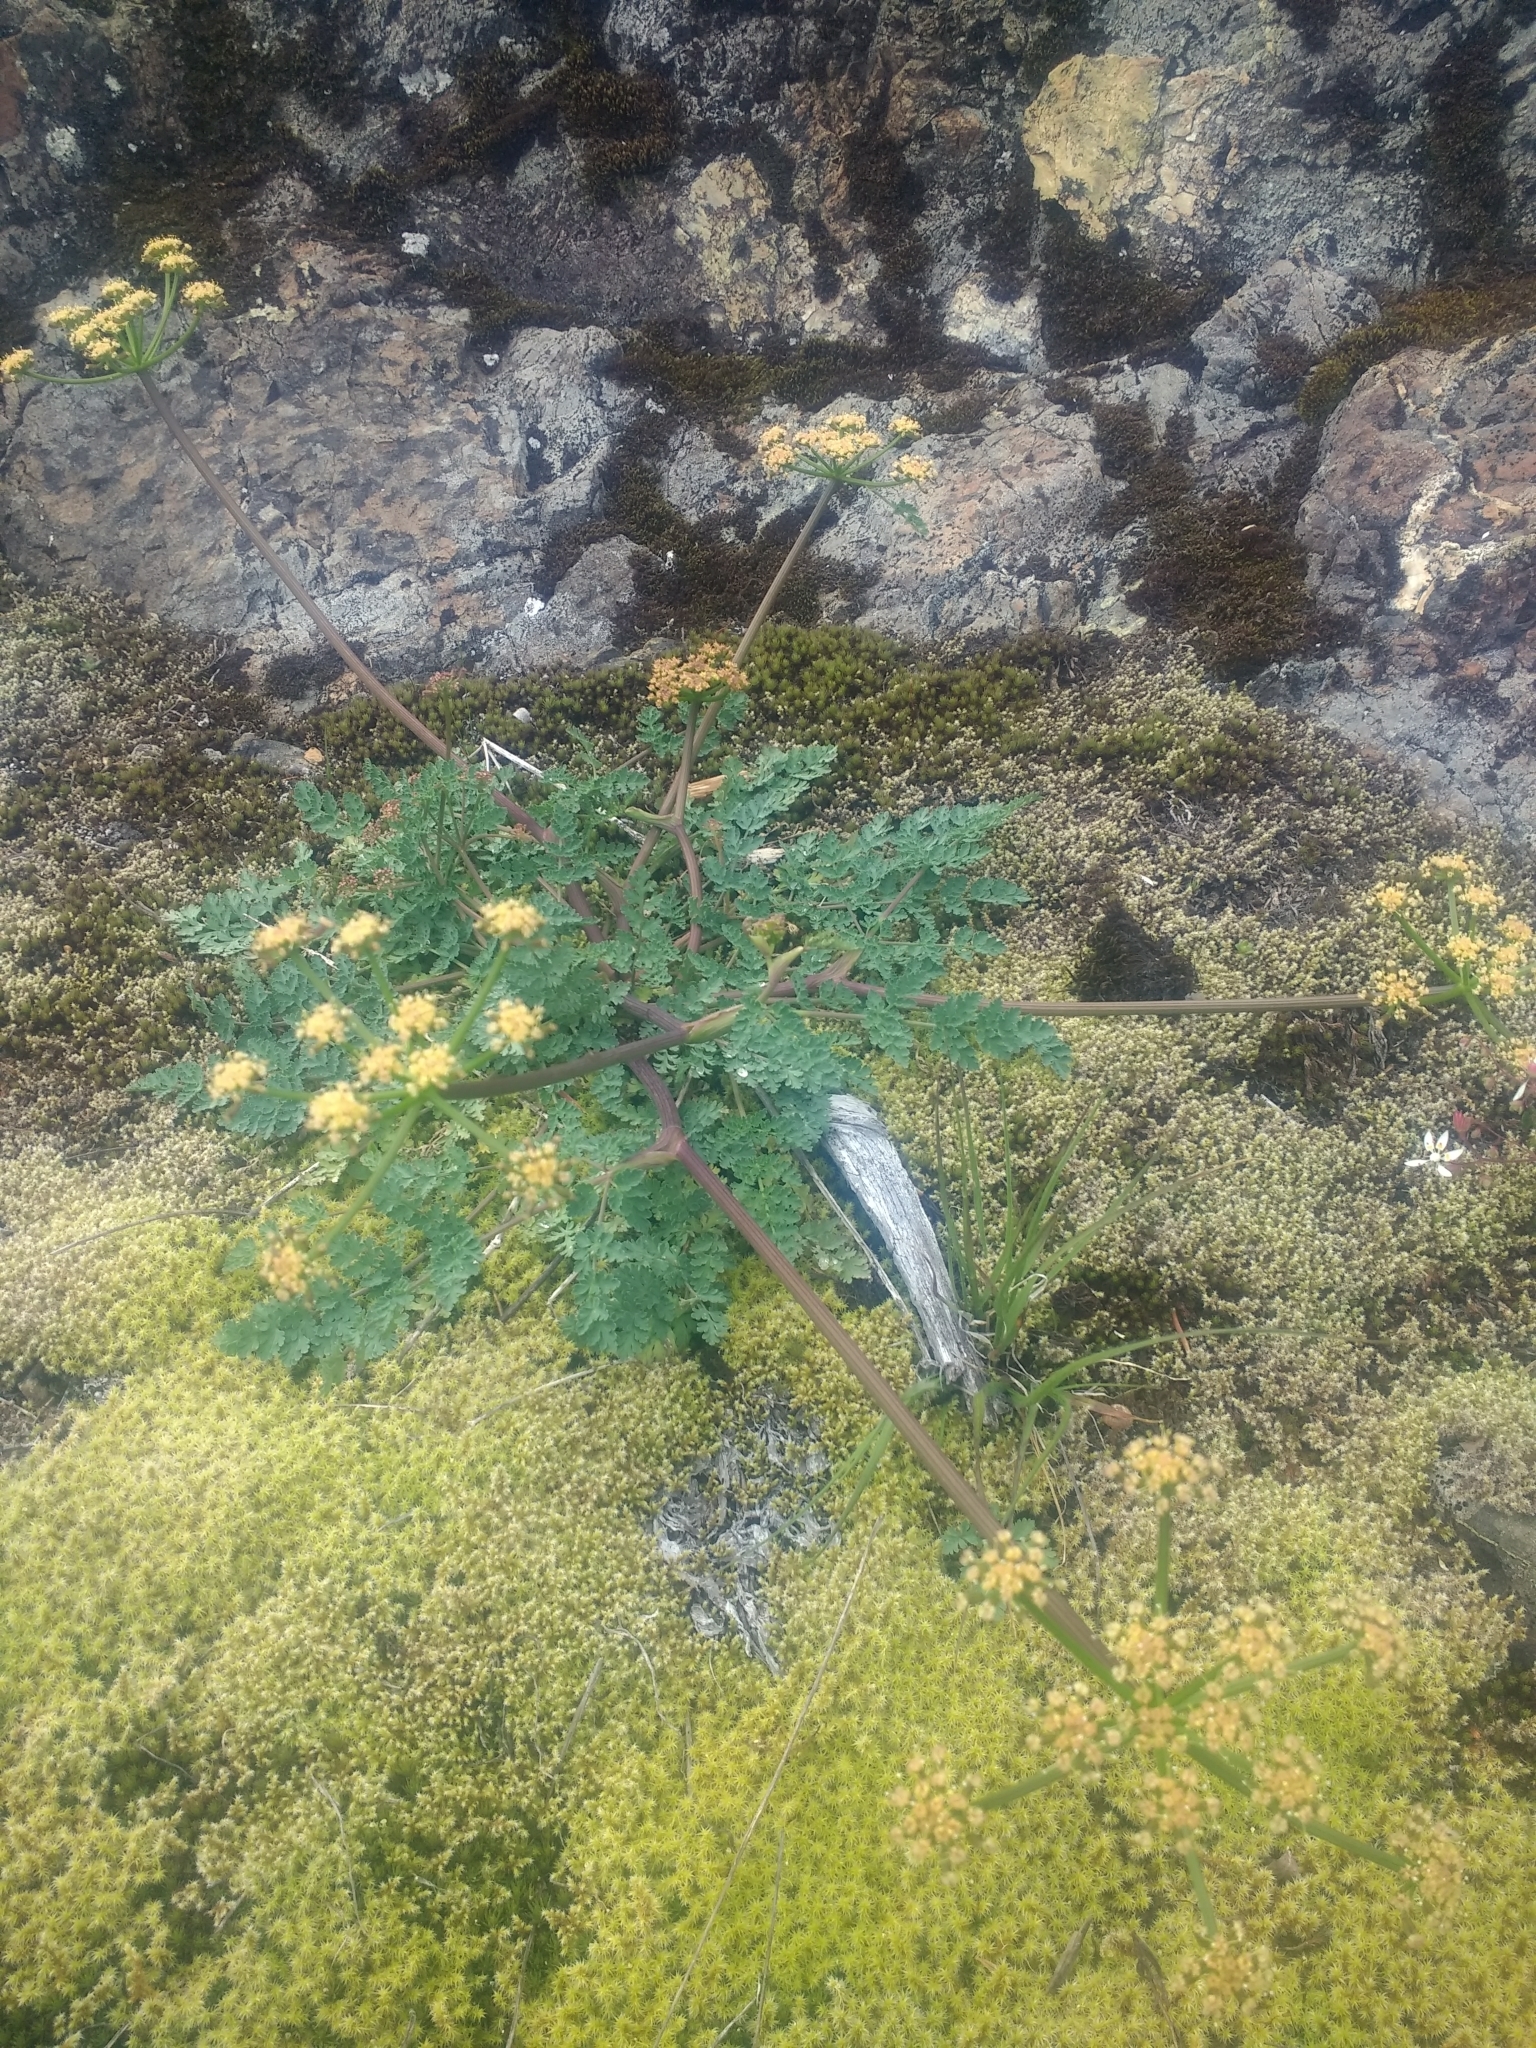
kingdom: Plantae
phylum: Tracheophyta
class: Magnoliopsida
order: Apiales
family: Apiaceae
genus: Lomatium
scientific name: Lomatium martindalei
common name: Cascade desert-parsley
